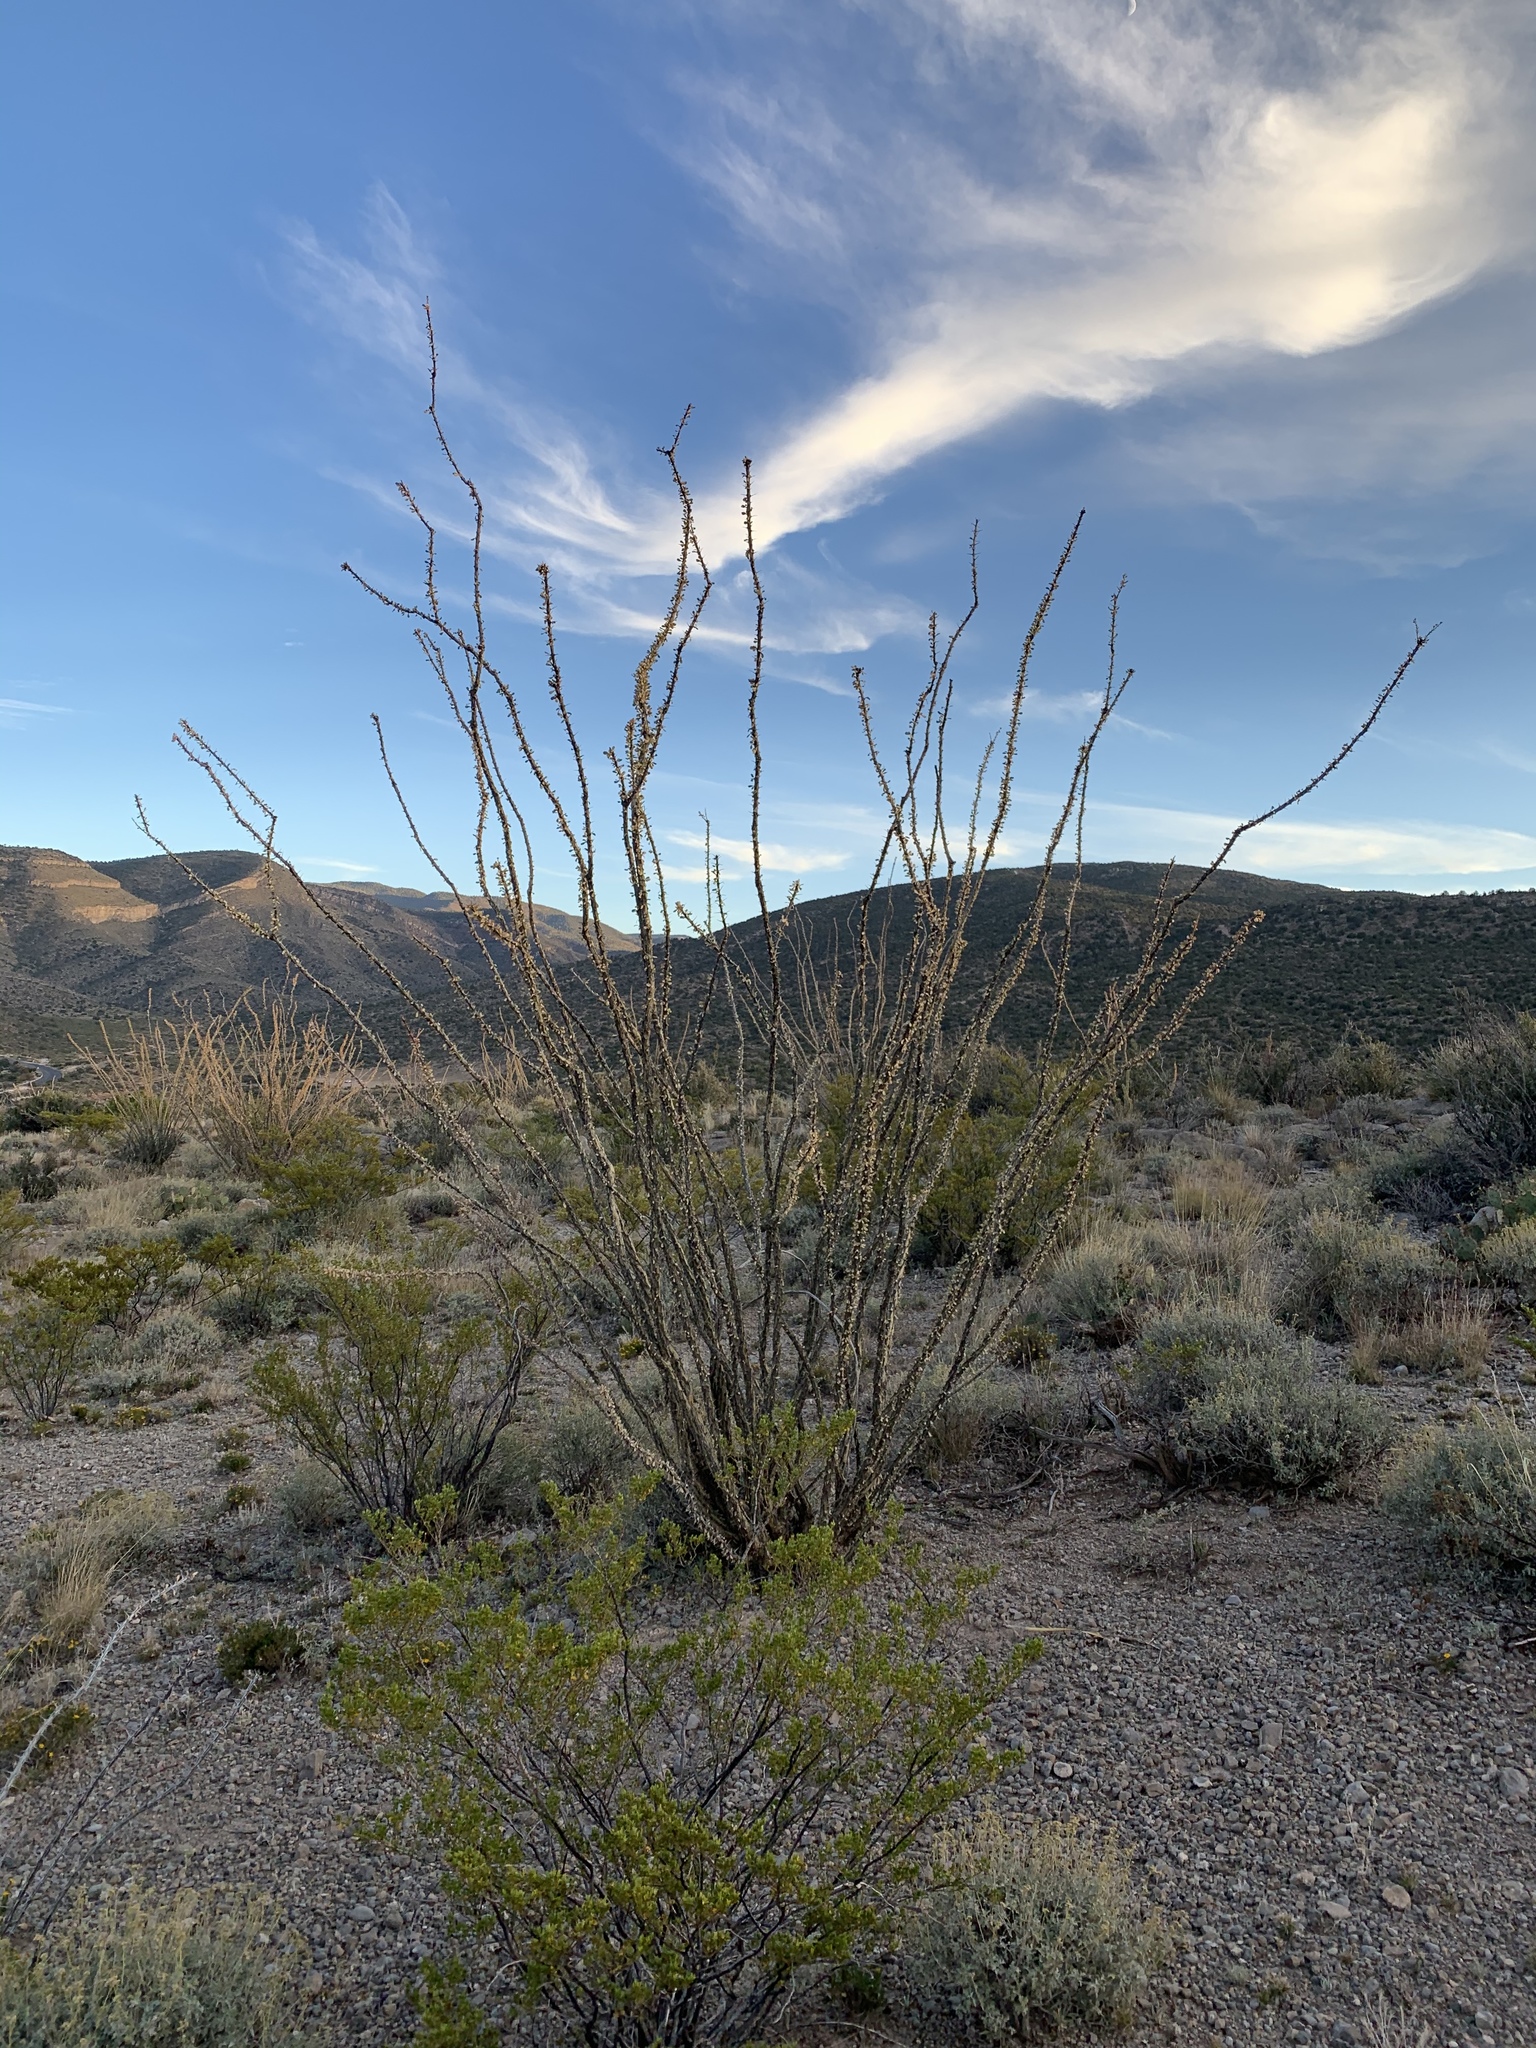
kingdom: Plantae
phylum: Tracheophyta
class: Magnoliopsida
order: Ericales
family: Fouquieriaceae
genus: Fouquieria
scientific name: Fouquieria splendens
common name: Vine-cactus
